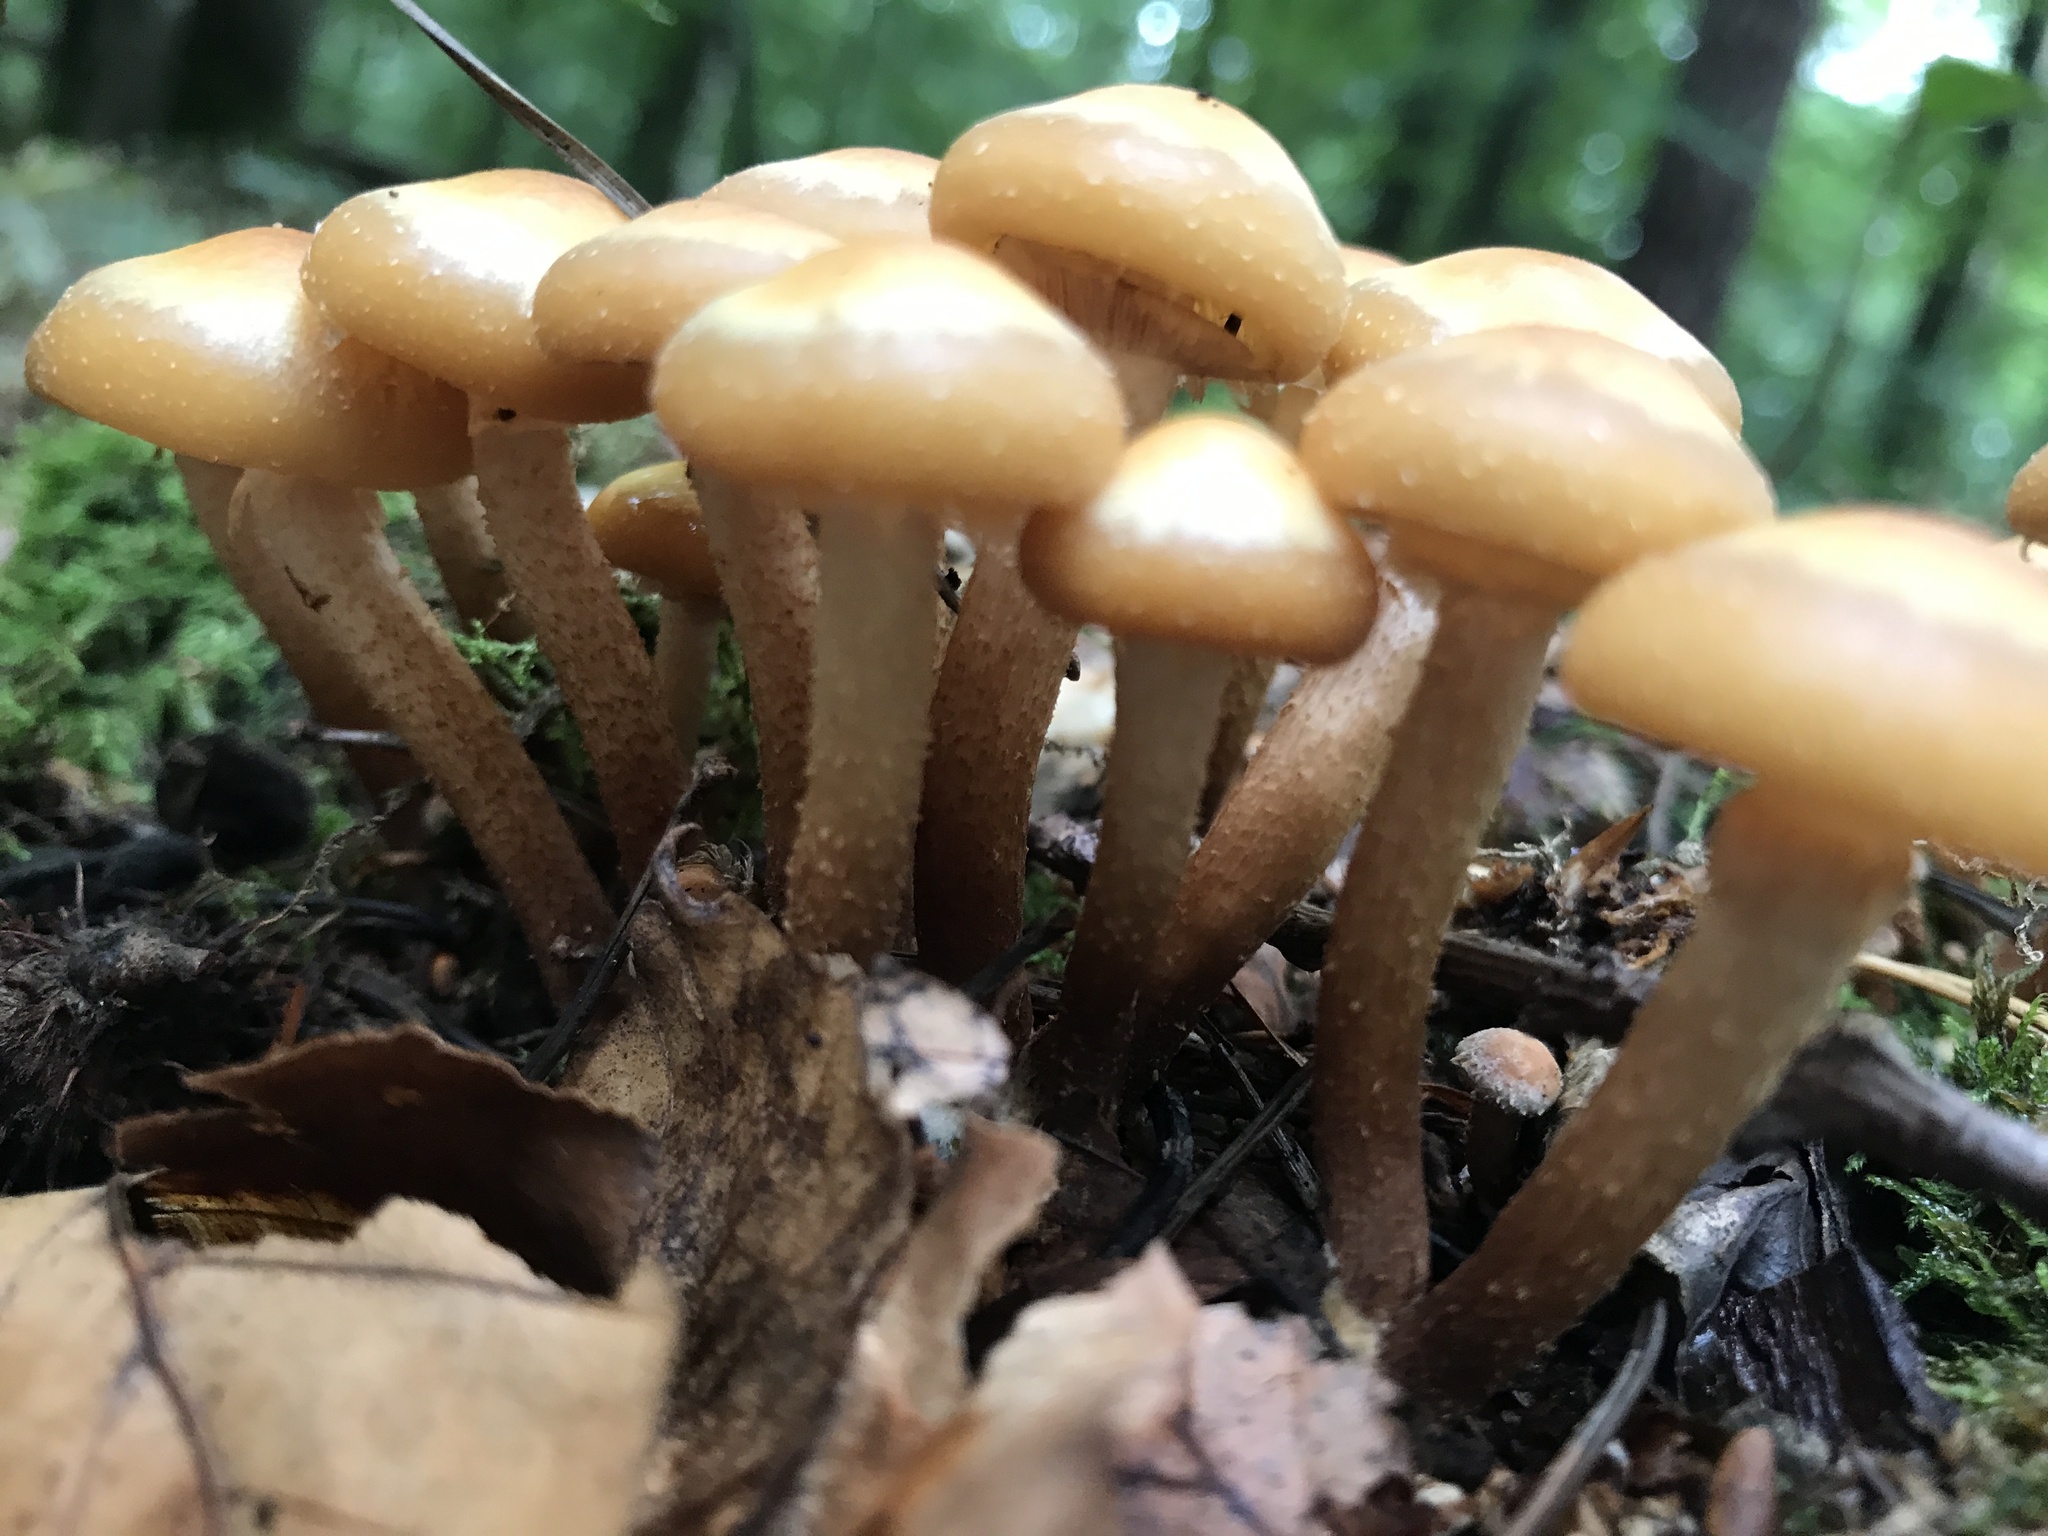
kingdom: Fungi
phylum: Basidiomycota
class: Agaricomycetes
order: Agaricales
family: Strophariaceae
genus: Kuehneromyces
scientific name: Kuehneromyces mutabilis
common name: Sheathed woodtuft
